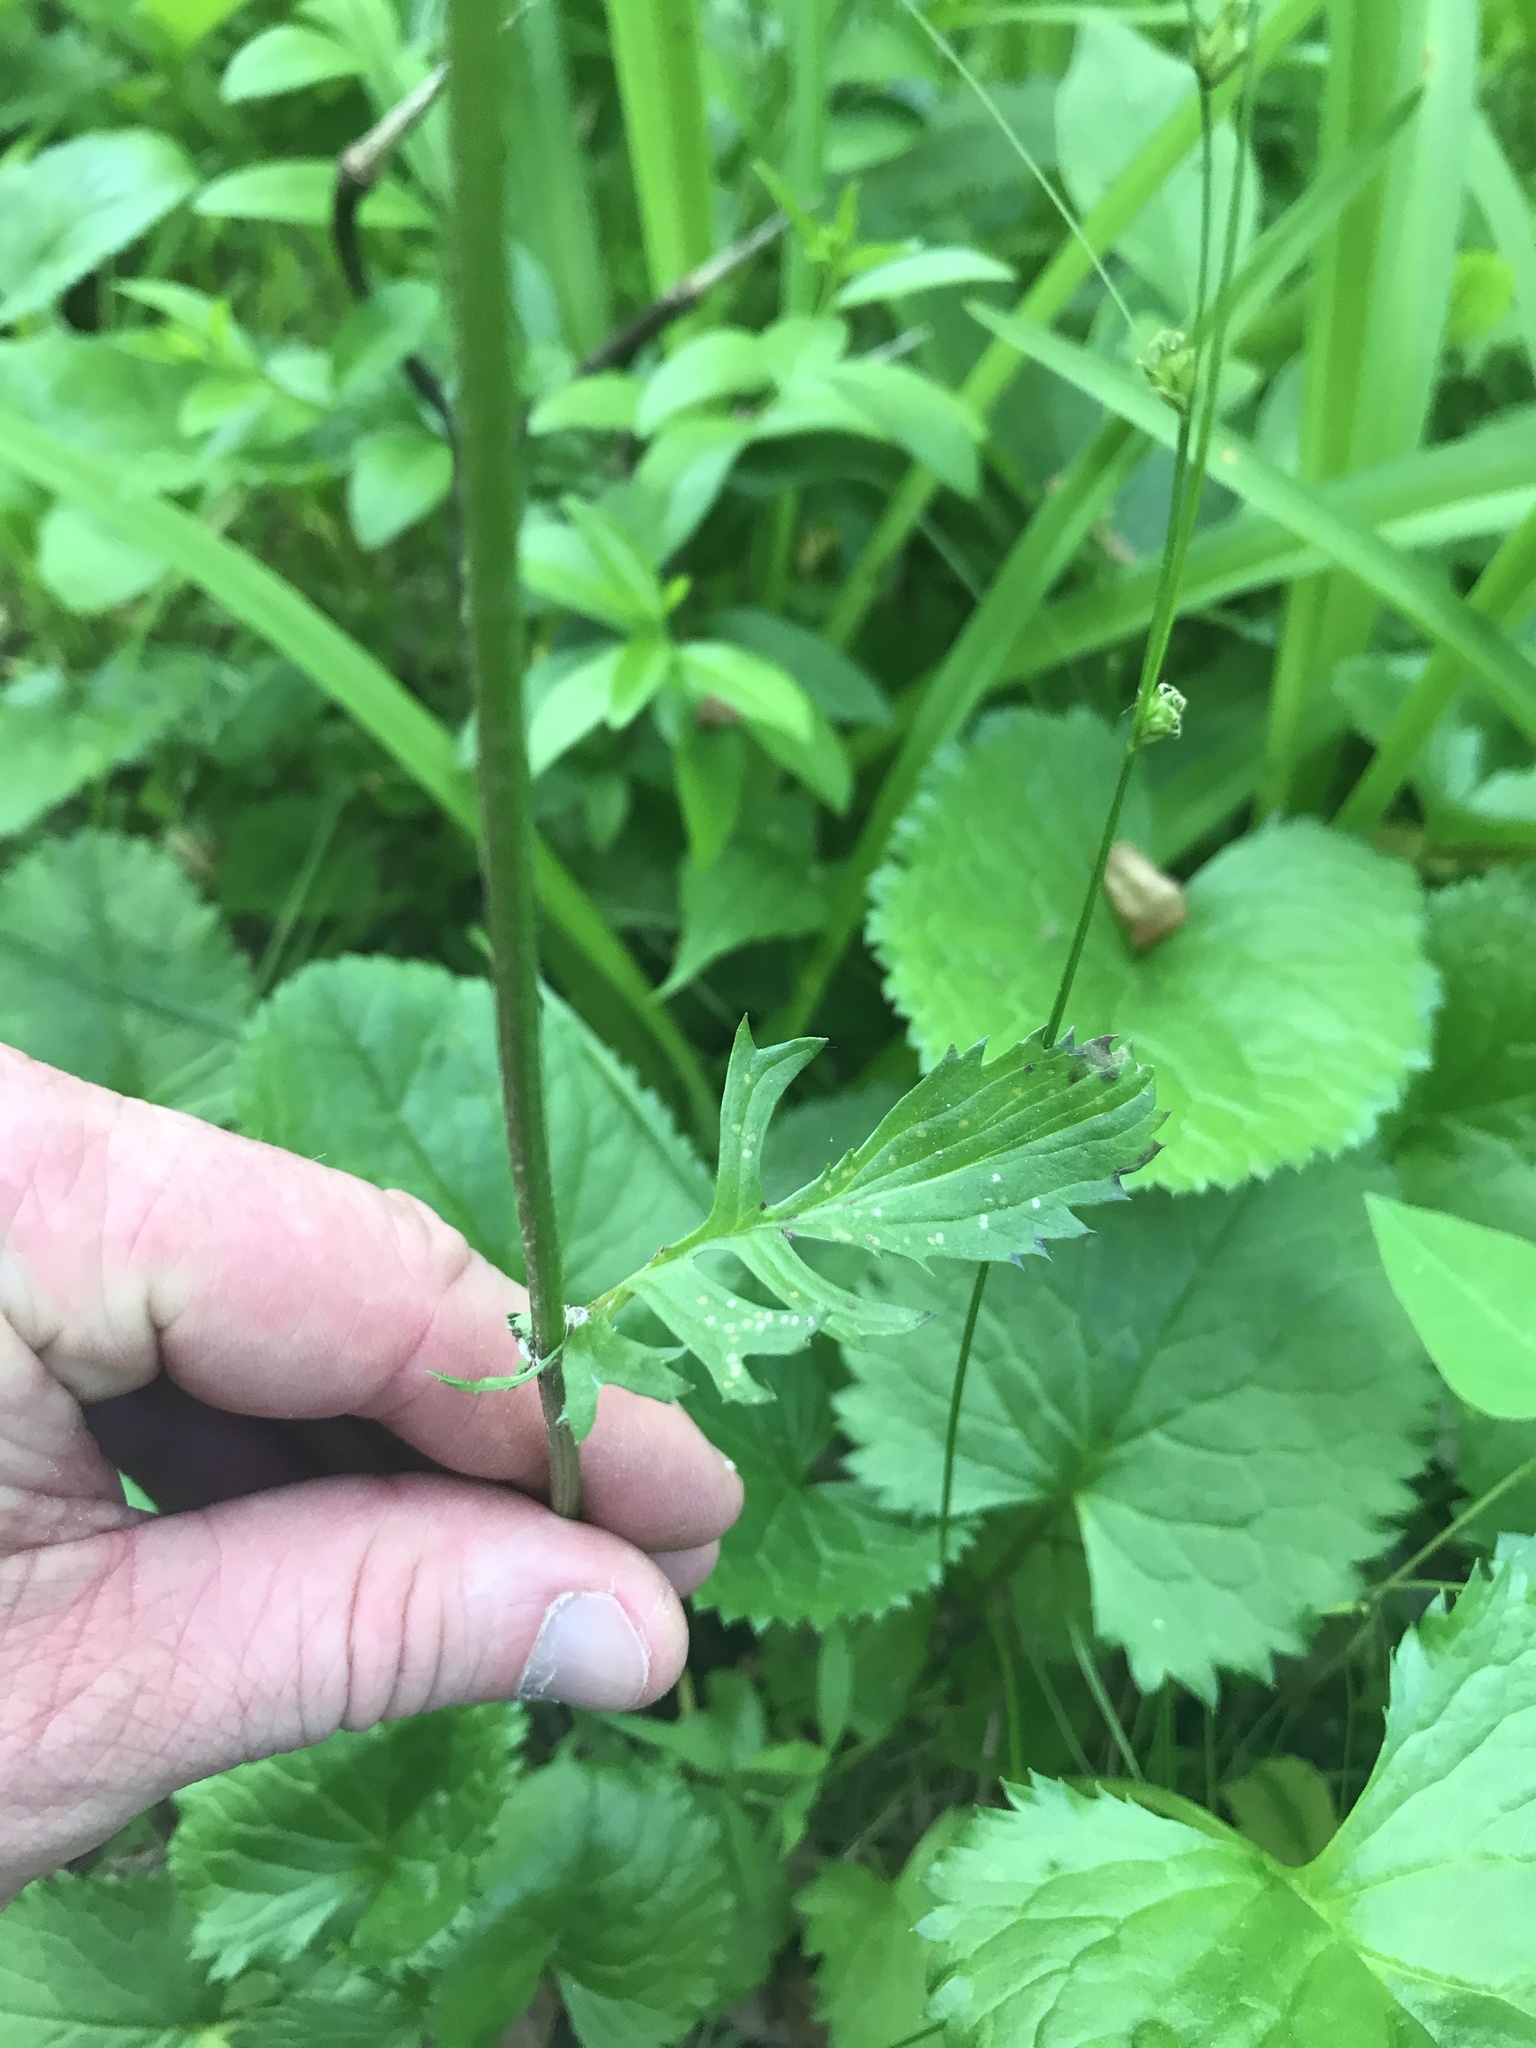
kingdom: Plantae
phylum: Tracheophyta
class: Magnoliopsida
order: Asterales
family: Asteraceae
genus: Packera
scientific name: Packera aurea
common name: Golden groundsel
